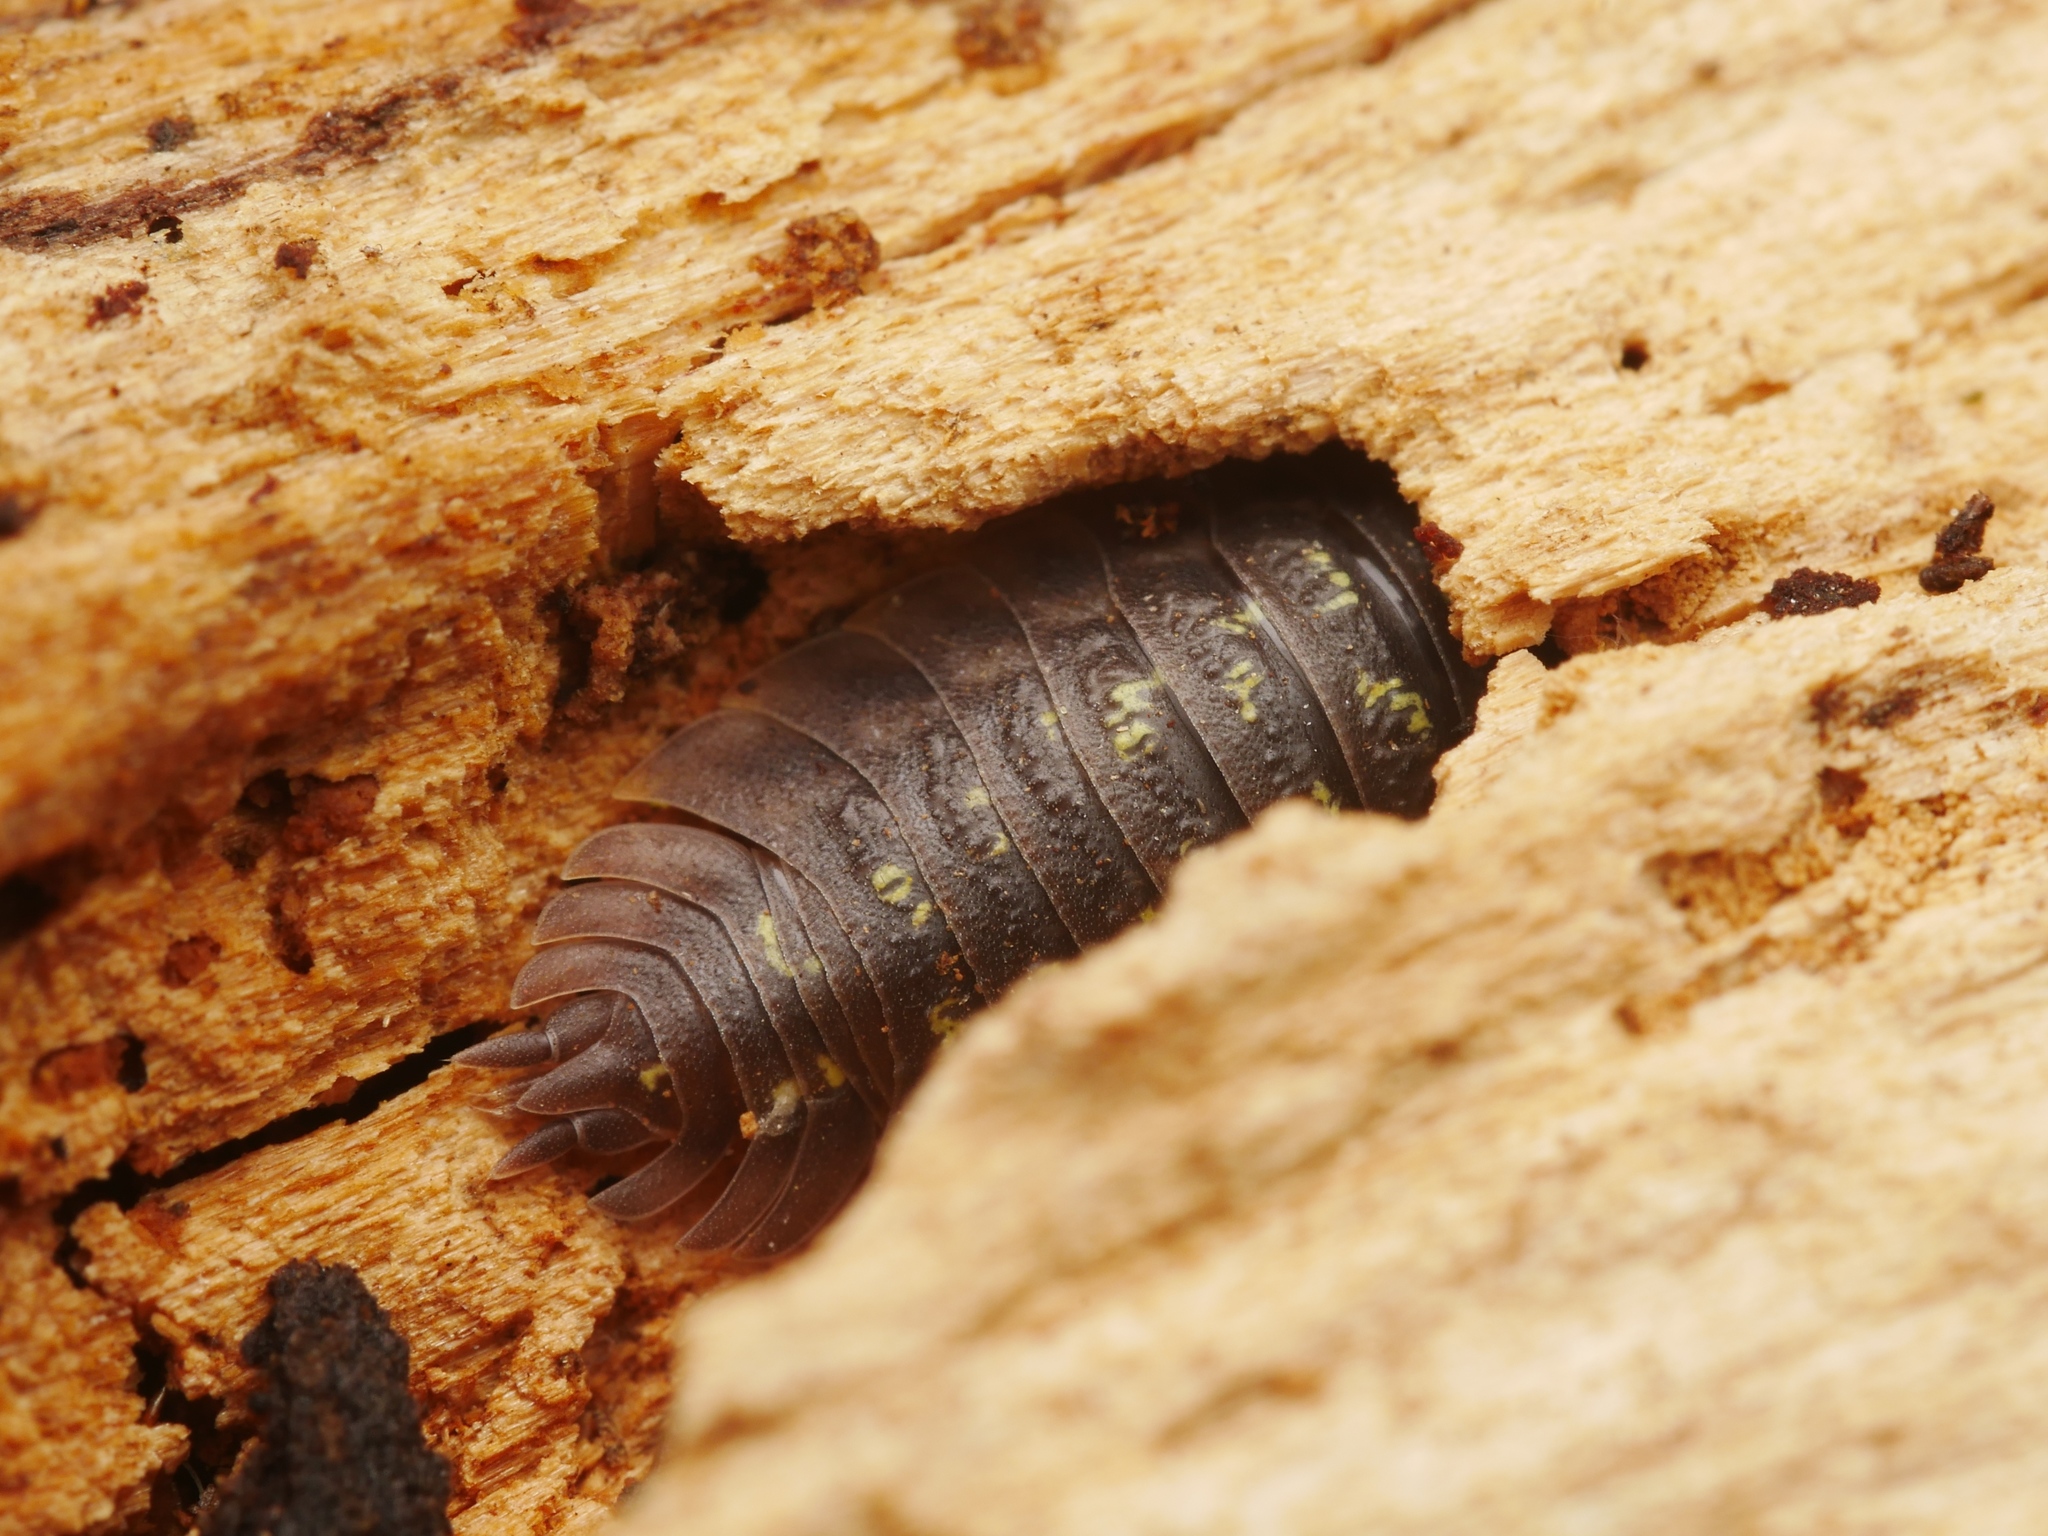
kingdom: Animalia
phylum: Arthropoda
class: Malacostraca
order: Isopoda
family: Oniscidae
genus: Oniscus
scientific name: Oniscus asellus
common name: Common shiny woodlouse
